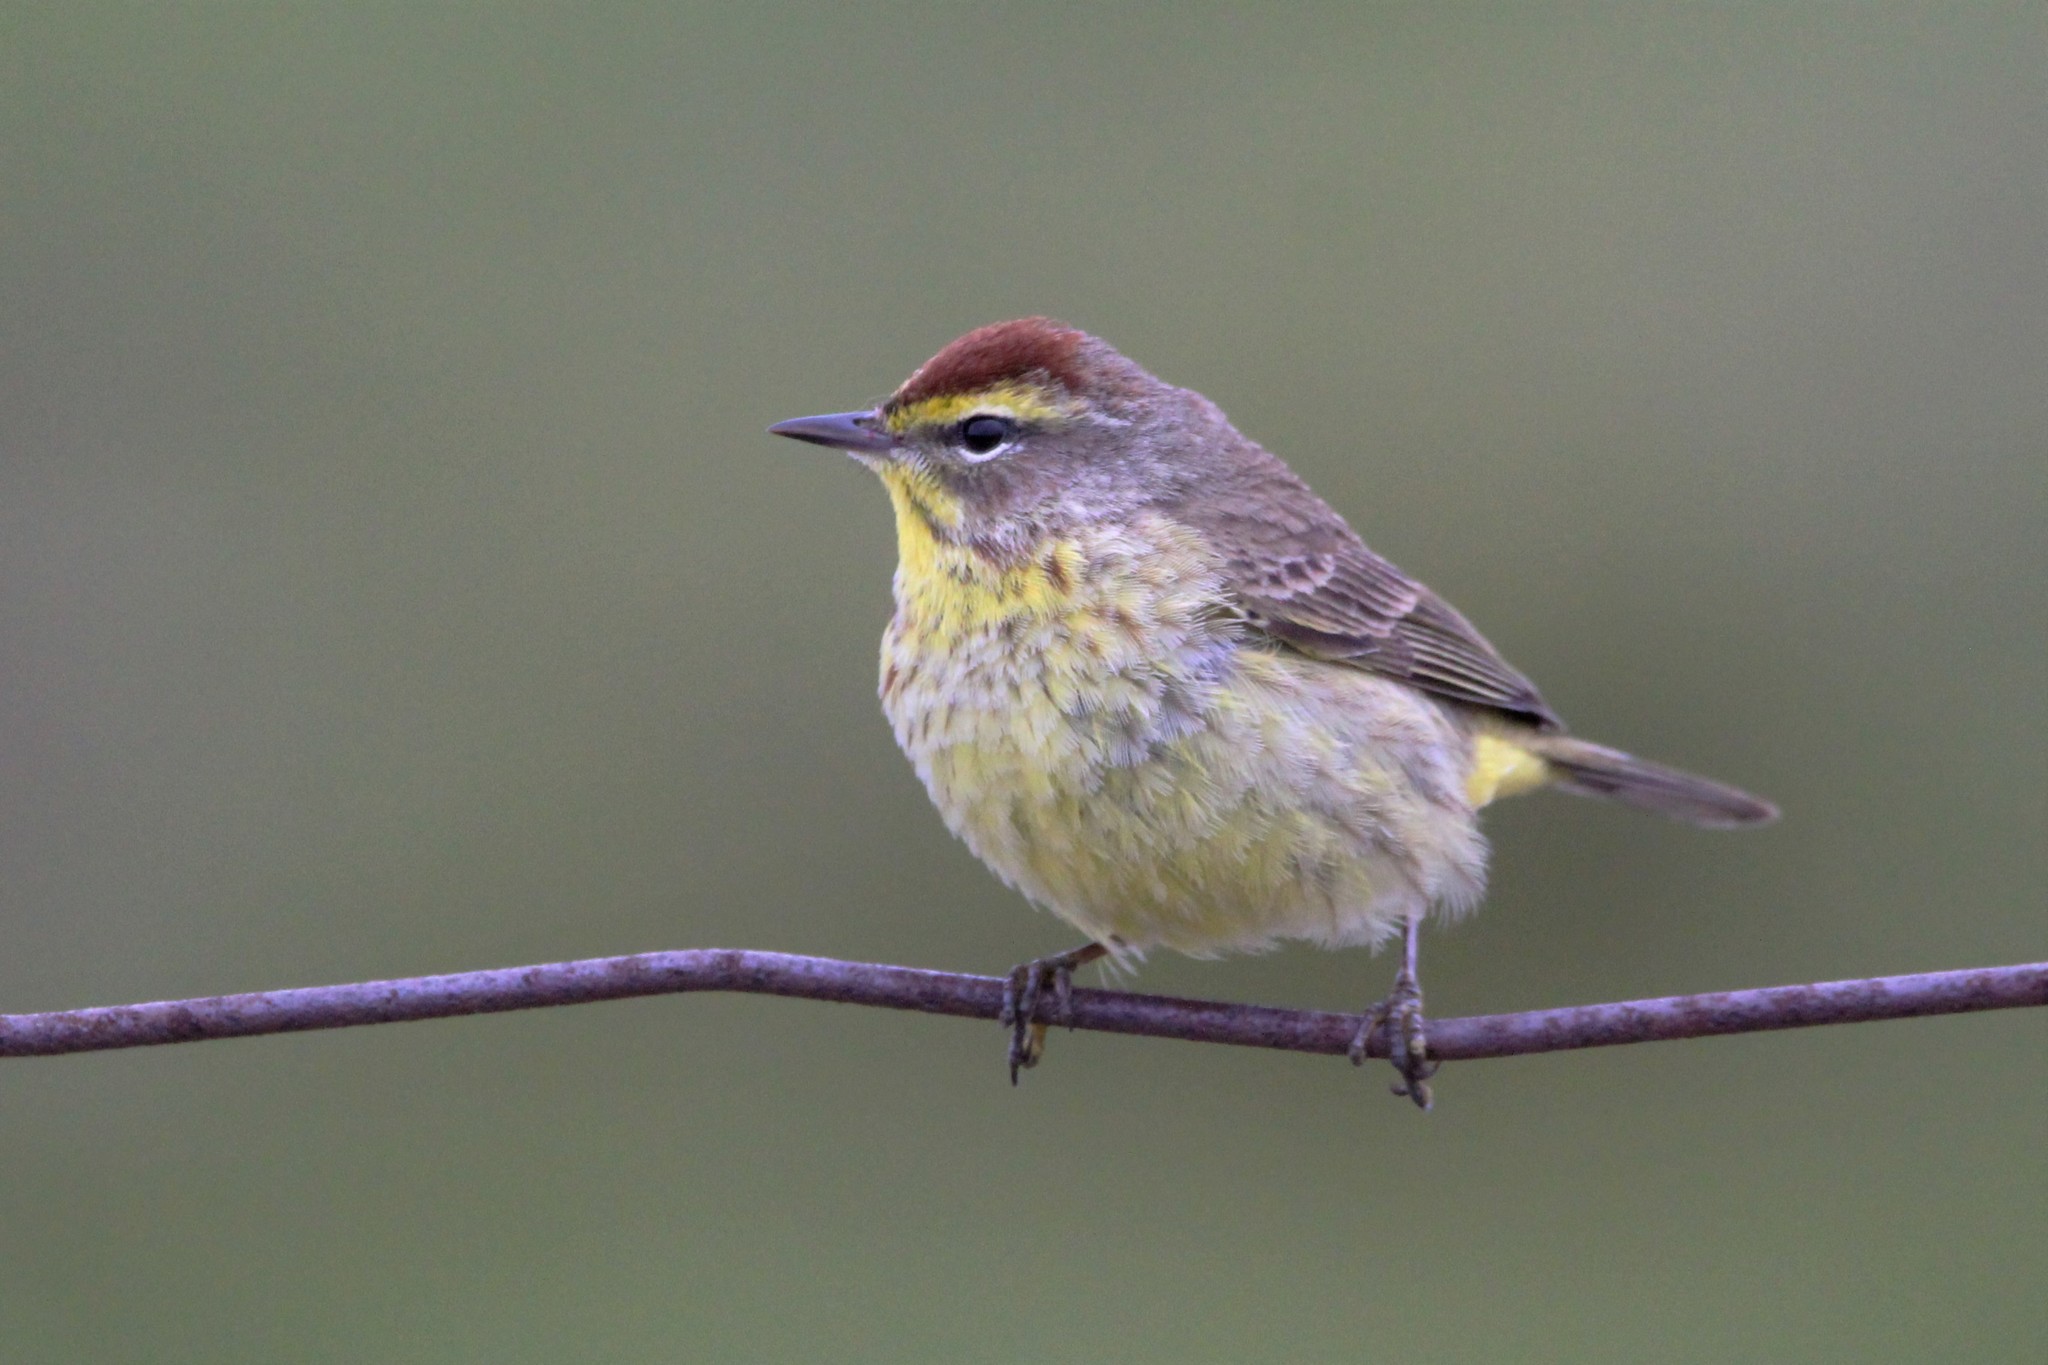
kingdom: Animalia
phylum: Chordata
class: Aves
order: Passeriformes
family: Parulidae
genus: Setophaga
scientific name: Setophaga palmarum
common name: Palm warbler
